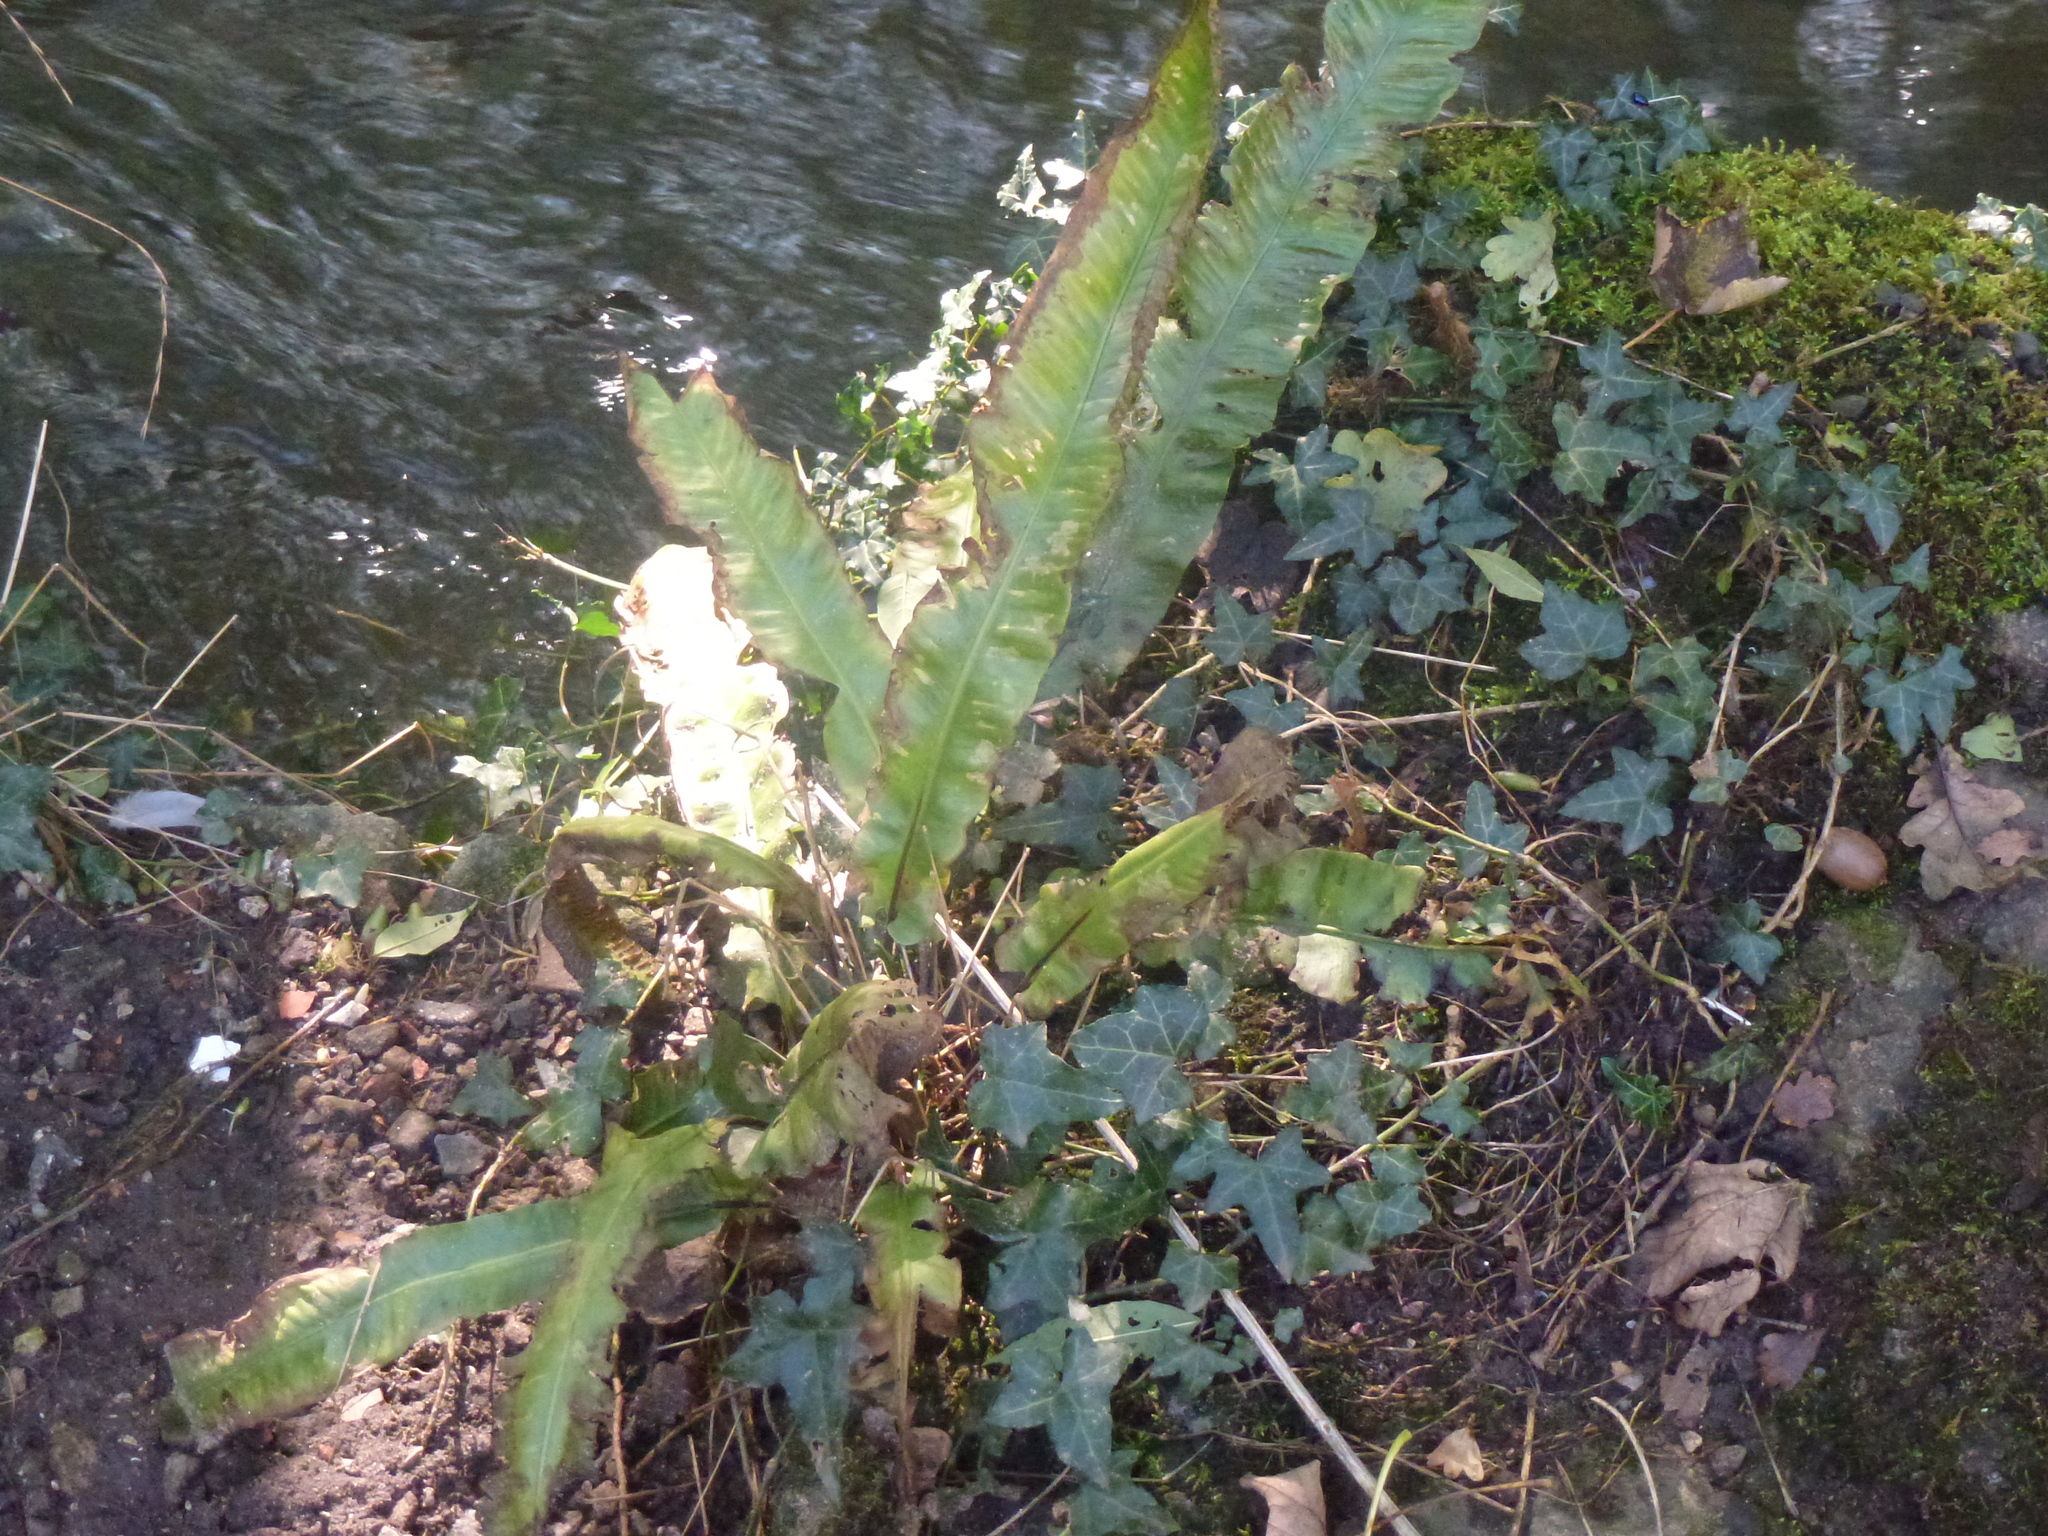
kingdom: Plantae
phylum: Tracheophyta
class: Polypodiopsida
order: Polypodiales
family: Aspleniaceae
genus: Asplenium
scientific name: Asplenium scolopendrium
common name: Hart's-tongue fern
